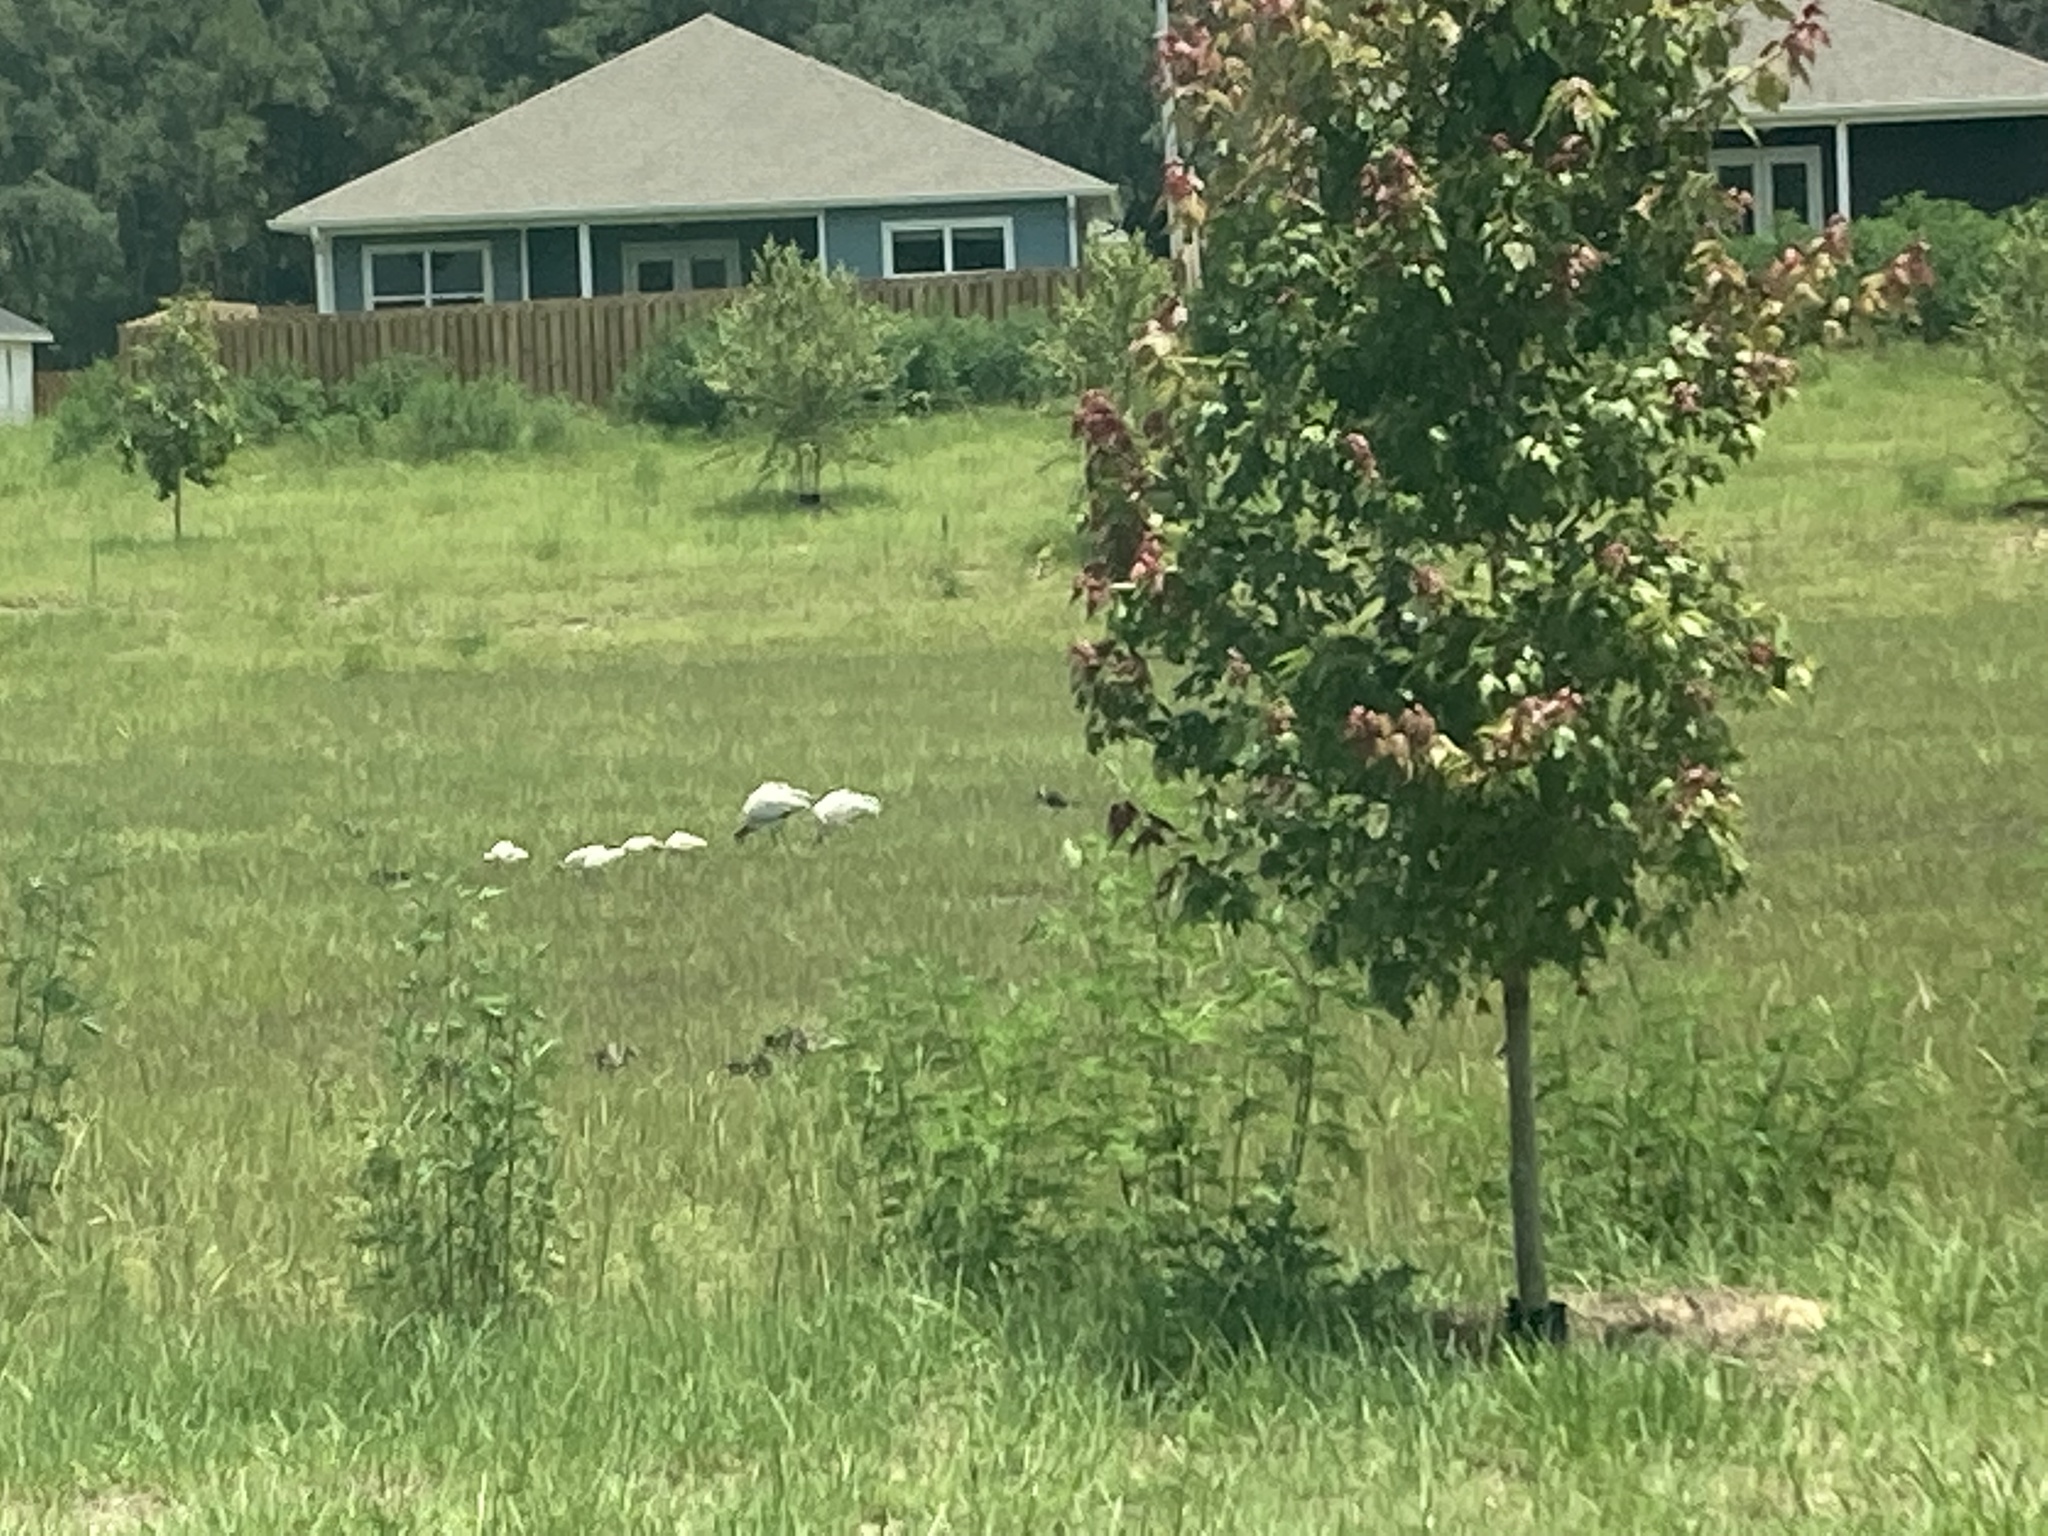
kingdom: Animalia
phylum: Chordata
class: Aves
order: Ciconiiformes
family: Ciconiidae
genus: Mycteria
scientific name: Mycteria americana
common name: Wood stork
